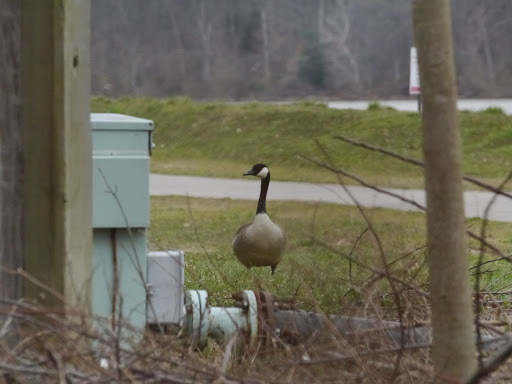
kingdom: Animalia
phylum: Chordata
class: Aves
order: Anseriformes
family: Anatidae
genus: Branta
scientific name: Branta canadensis
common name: Canada goose
